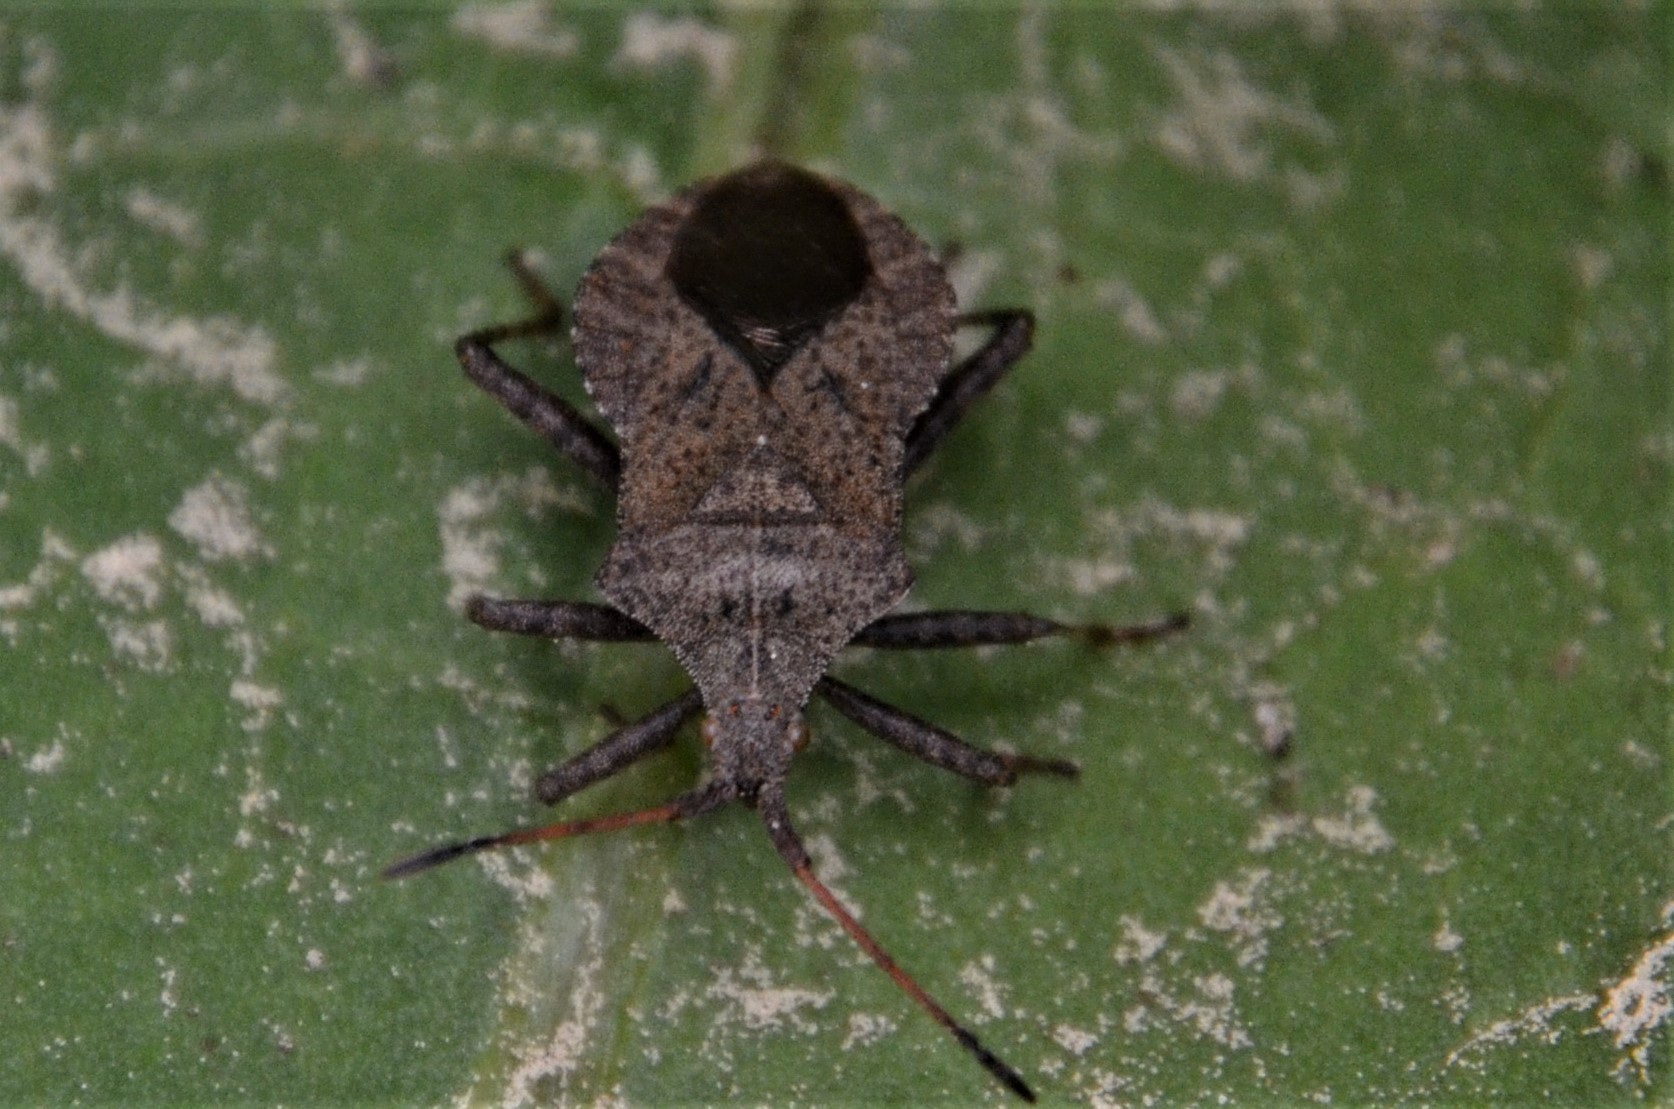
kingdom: Animalia
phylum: Arthropoda
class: Insecta
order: Hemiptera
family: Coreidae
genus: Coreus
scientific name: Coreus marginatus
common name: Dock bug
